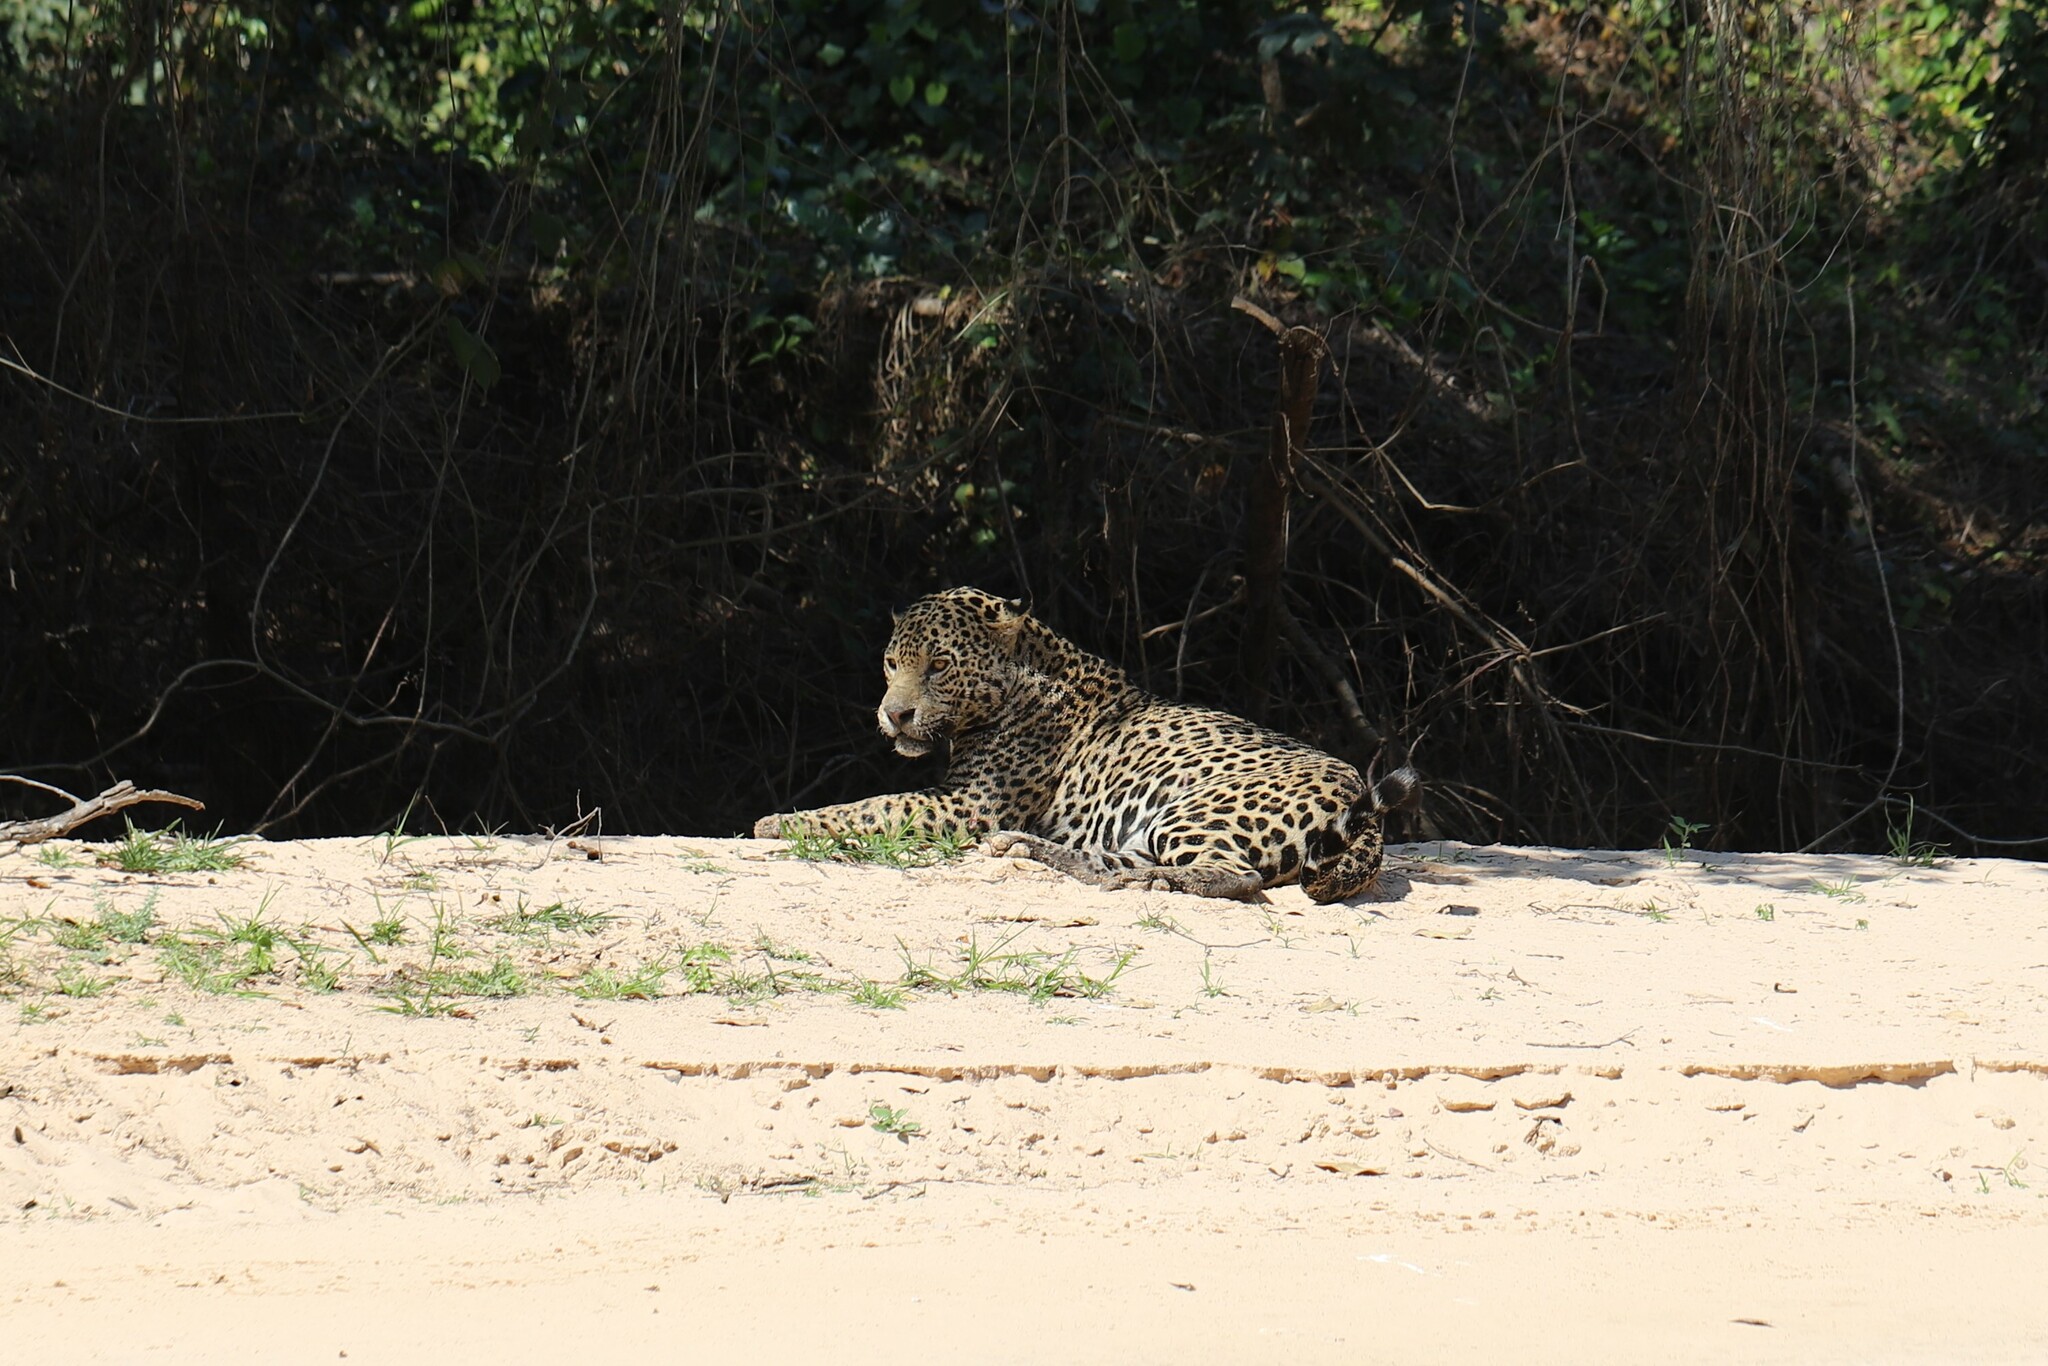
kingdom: Animalia
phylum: Chordata
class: Mammalia
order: Carnivora
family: Felidae
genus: Panthera
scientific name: Panthera onca
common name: Jaguar
